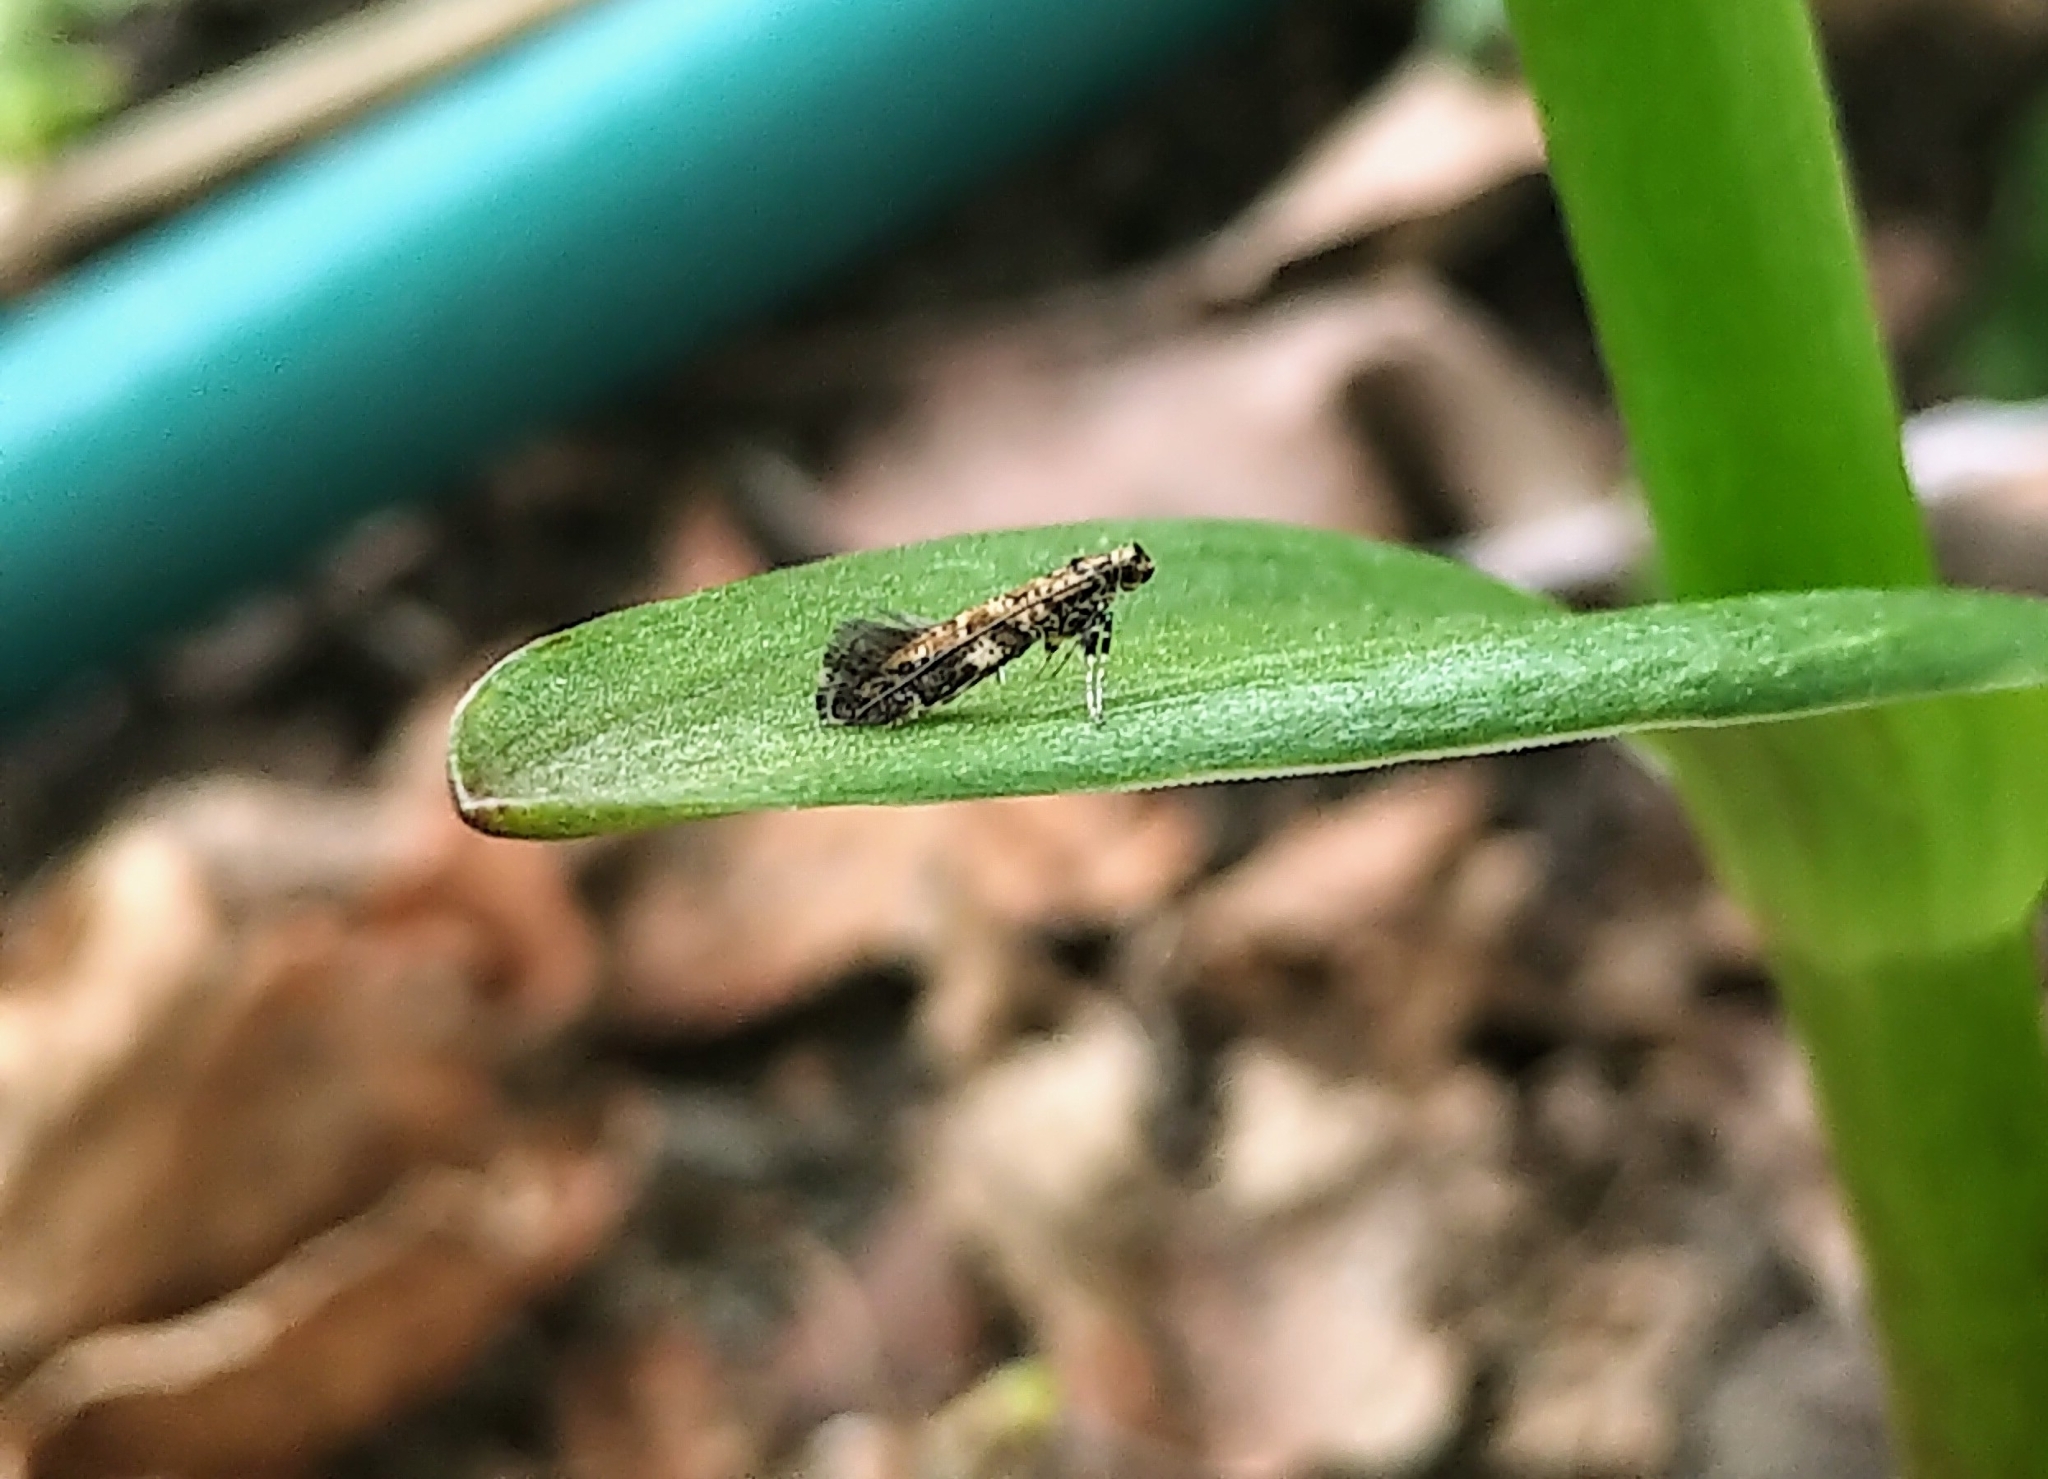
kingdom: Animalia
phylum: Arthropoda
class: Insecta
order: Lepidoptera
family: Gracillariidae
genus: Gracillaria
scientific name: Gracillaria syringella
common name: Common slender
